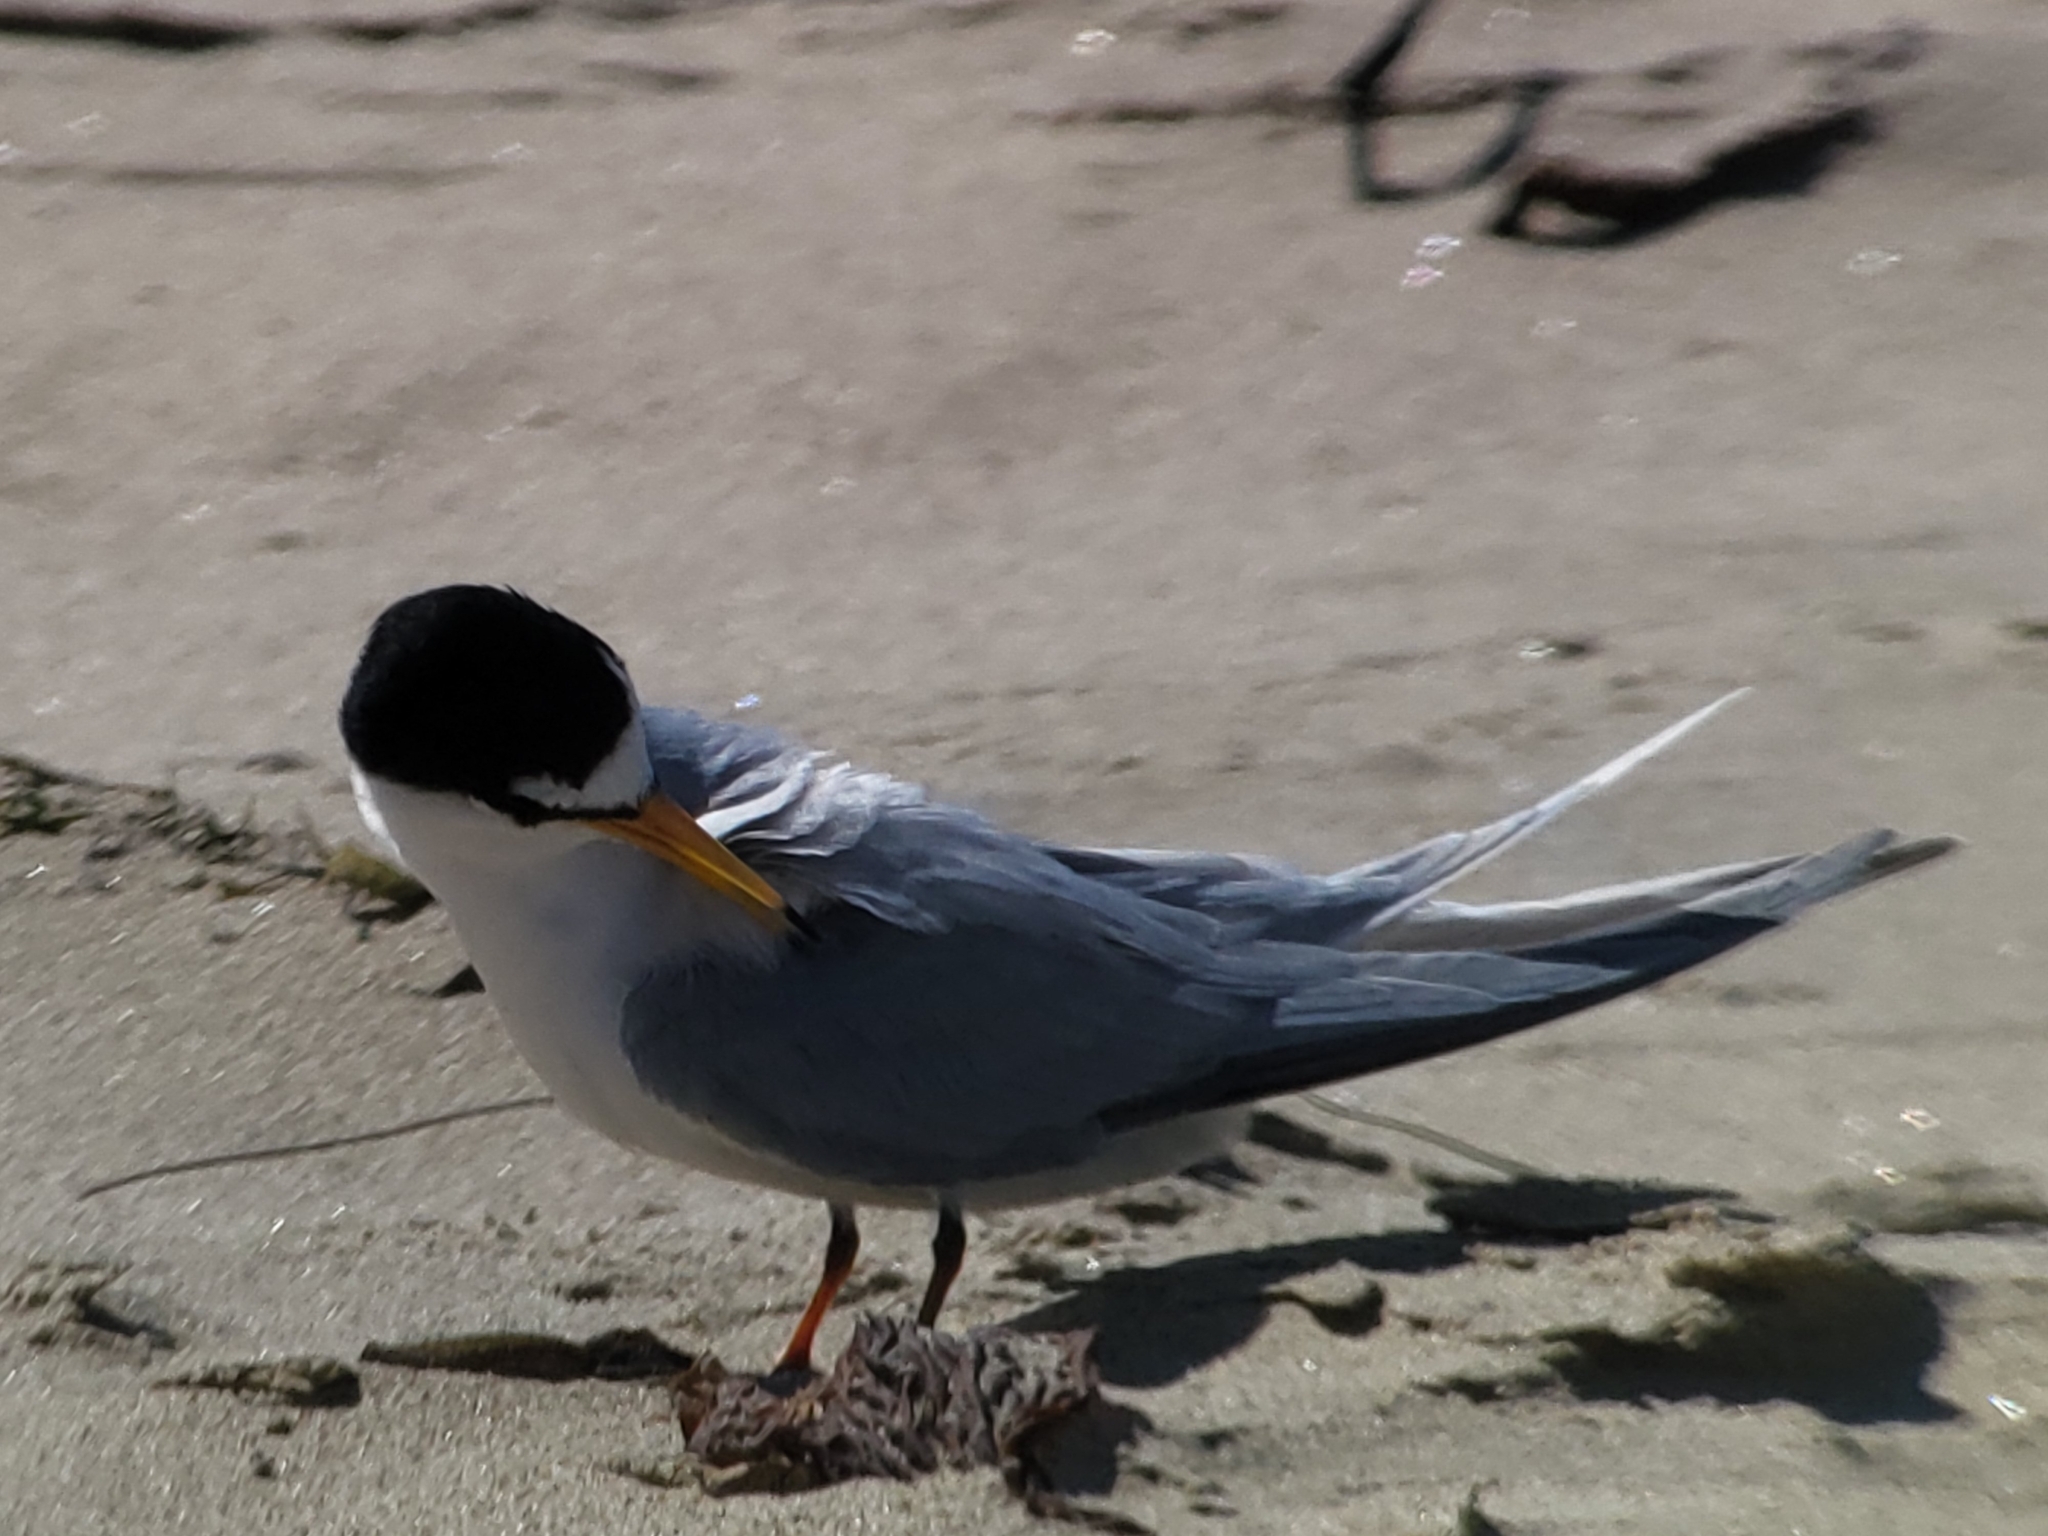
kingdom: Animalia
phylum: Chordata
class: Aves
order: Charadriiformes
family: Laridae
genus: Sternula
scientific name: Sternula antillarum
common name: Least tern
